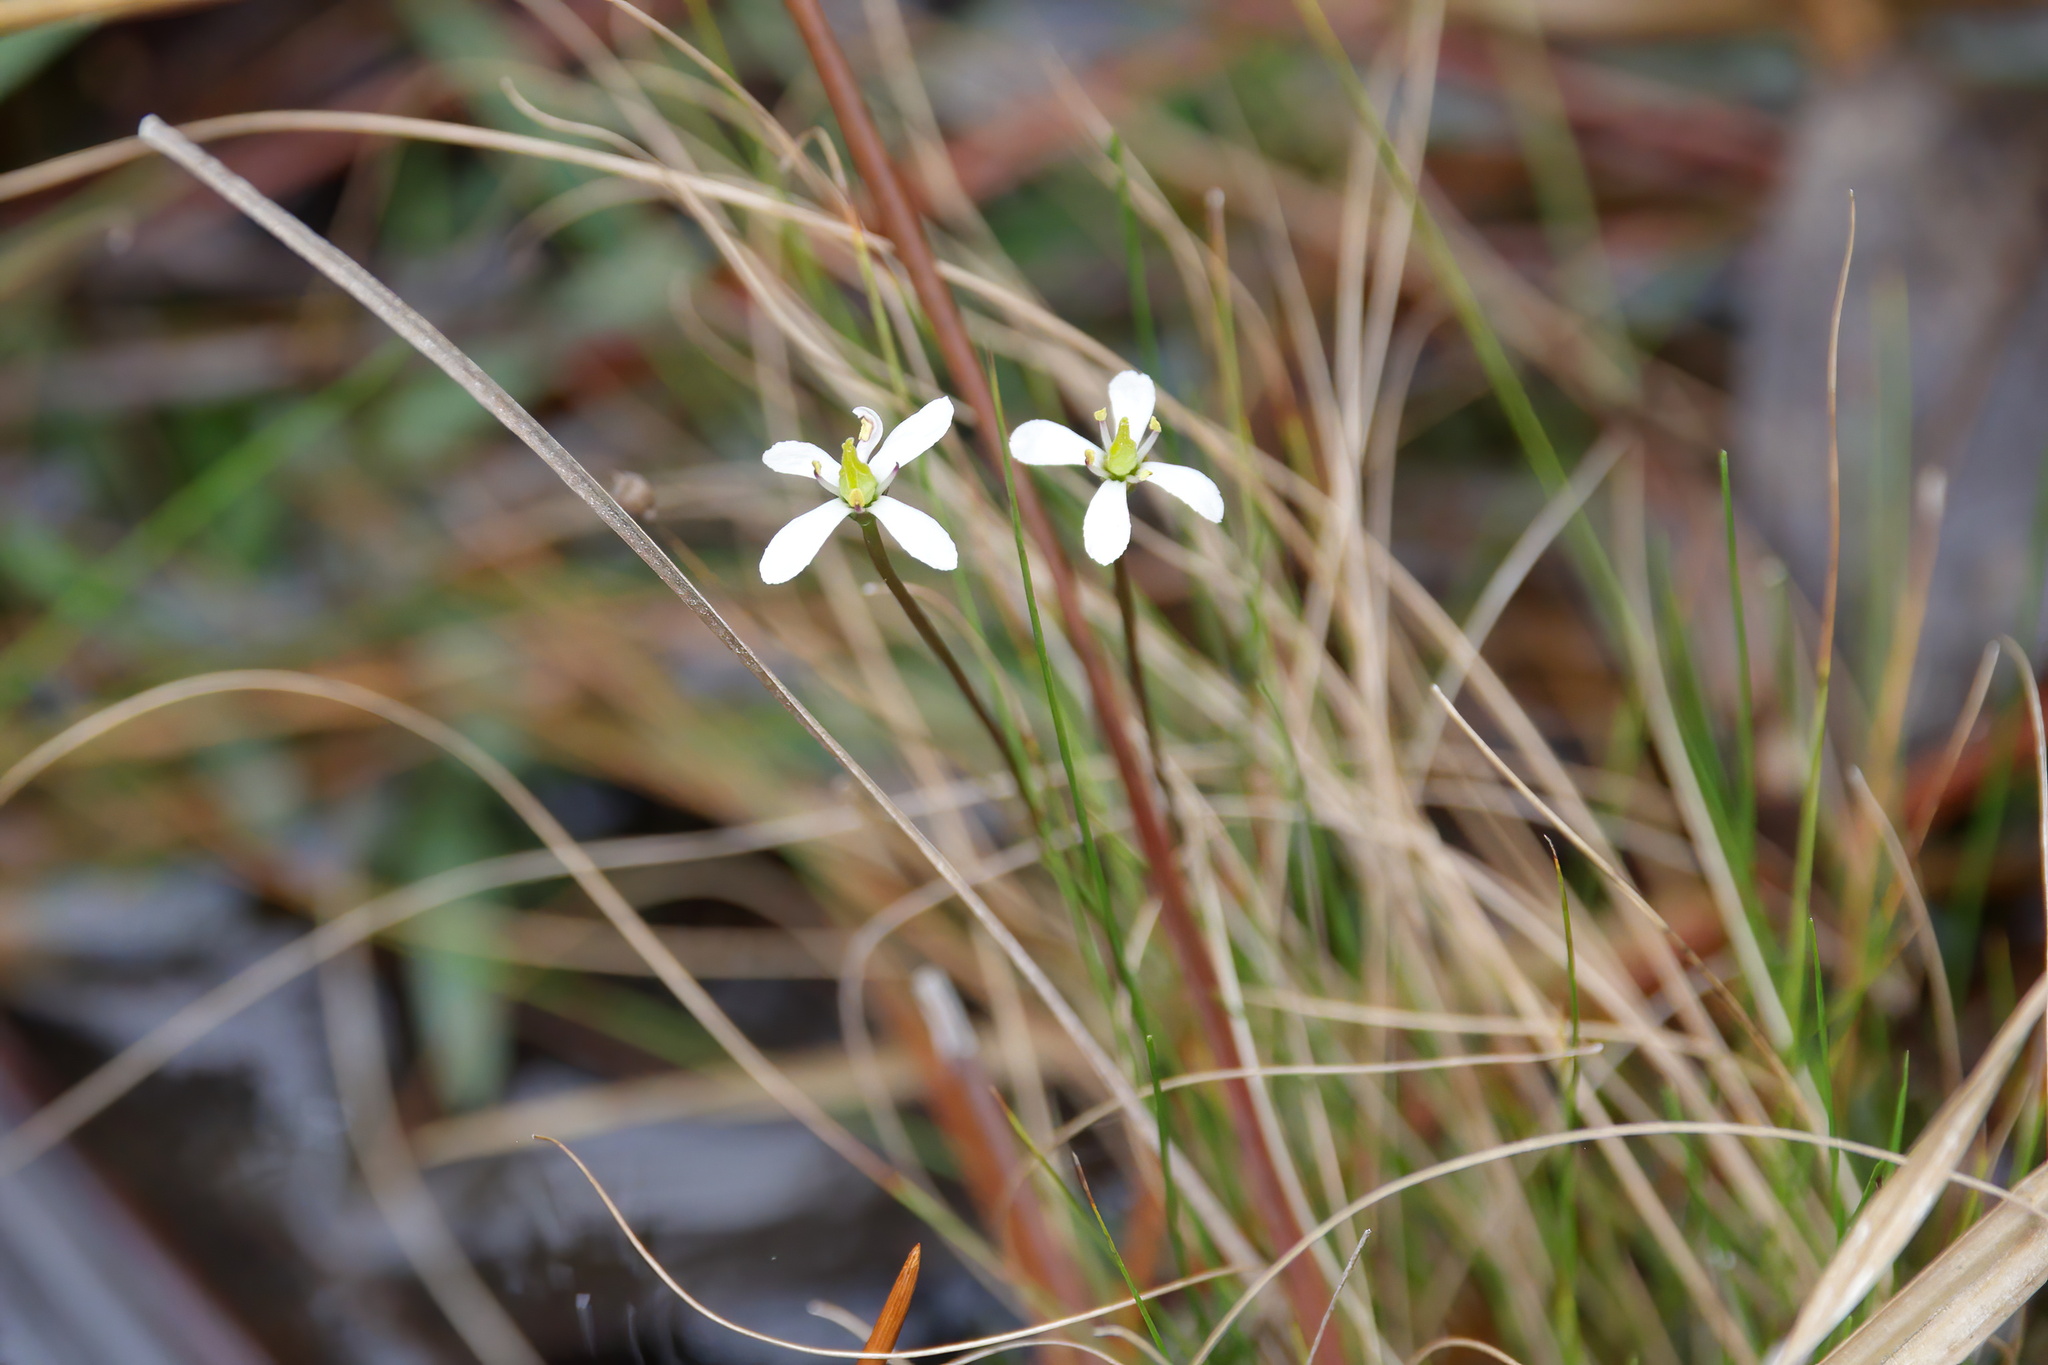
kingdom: Plantae
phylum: Tracheophyta
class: Magnoliopsida
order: Gentianales
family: Gentianaceae
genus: Bartonia
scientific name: Bartonia verna
